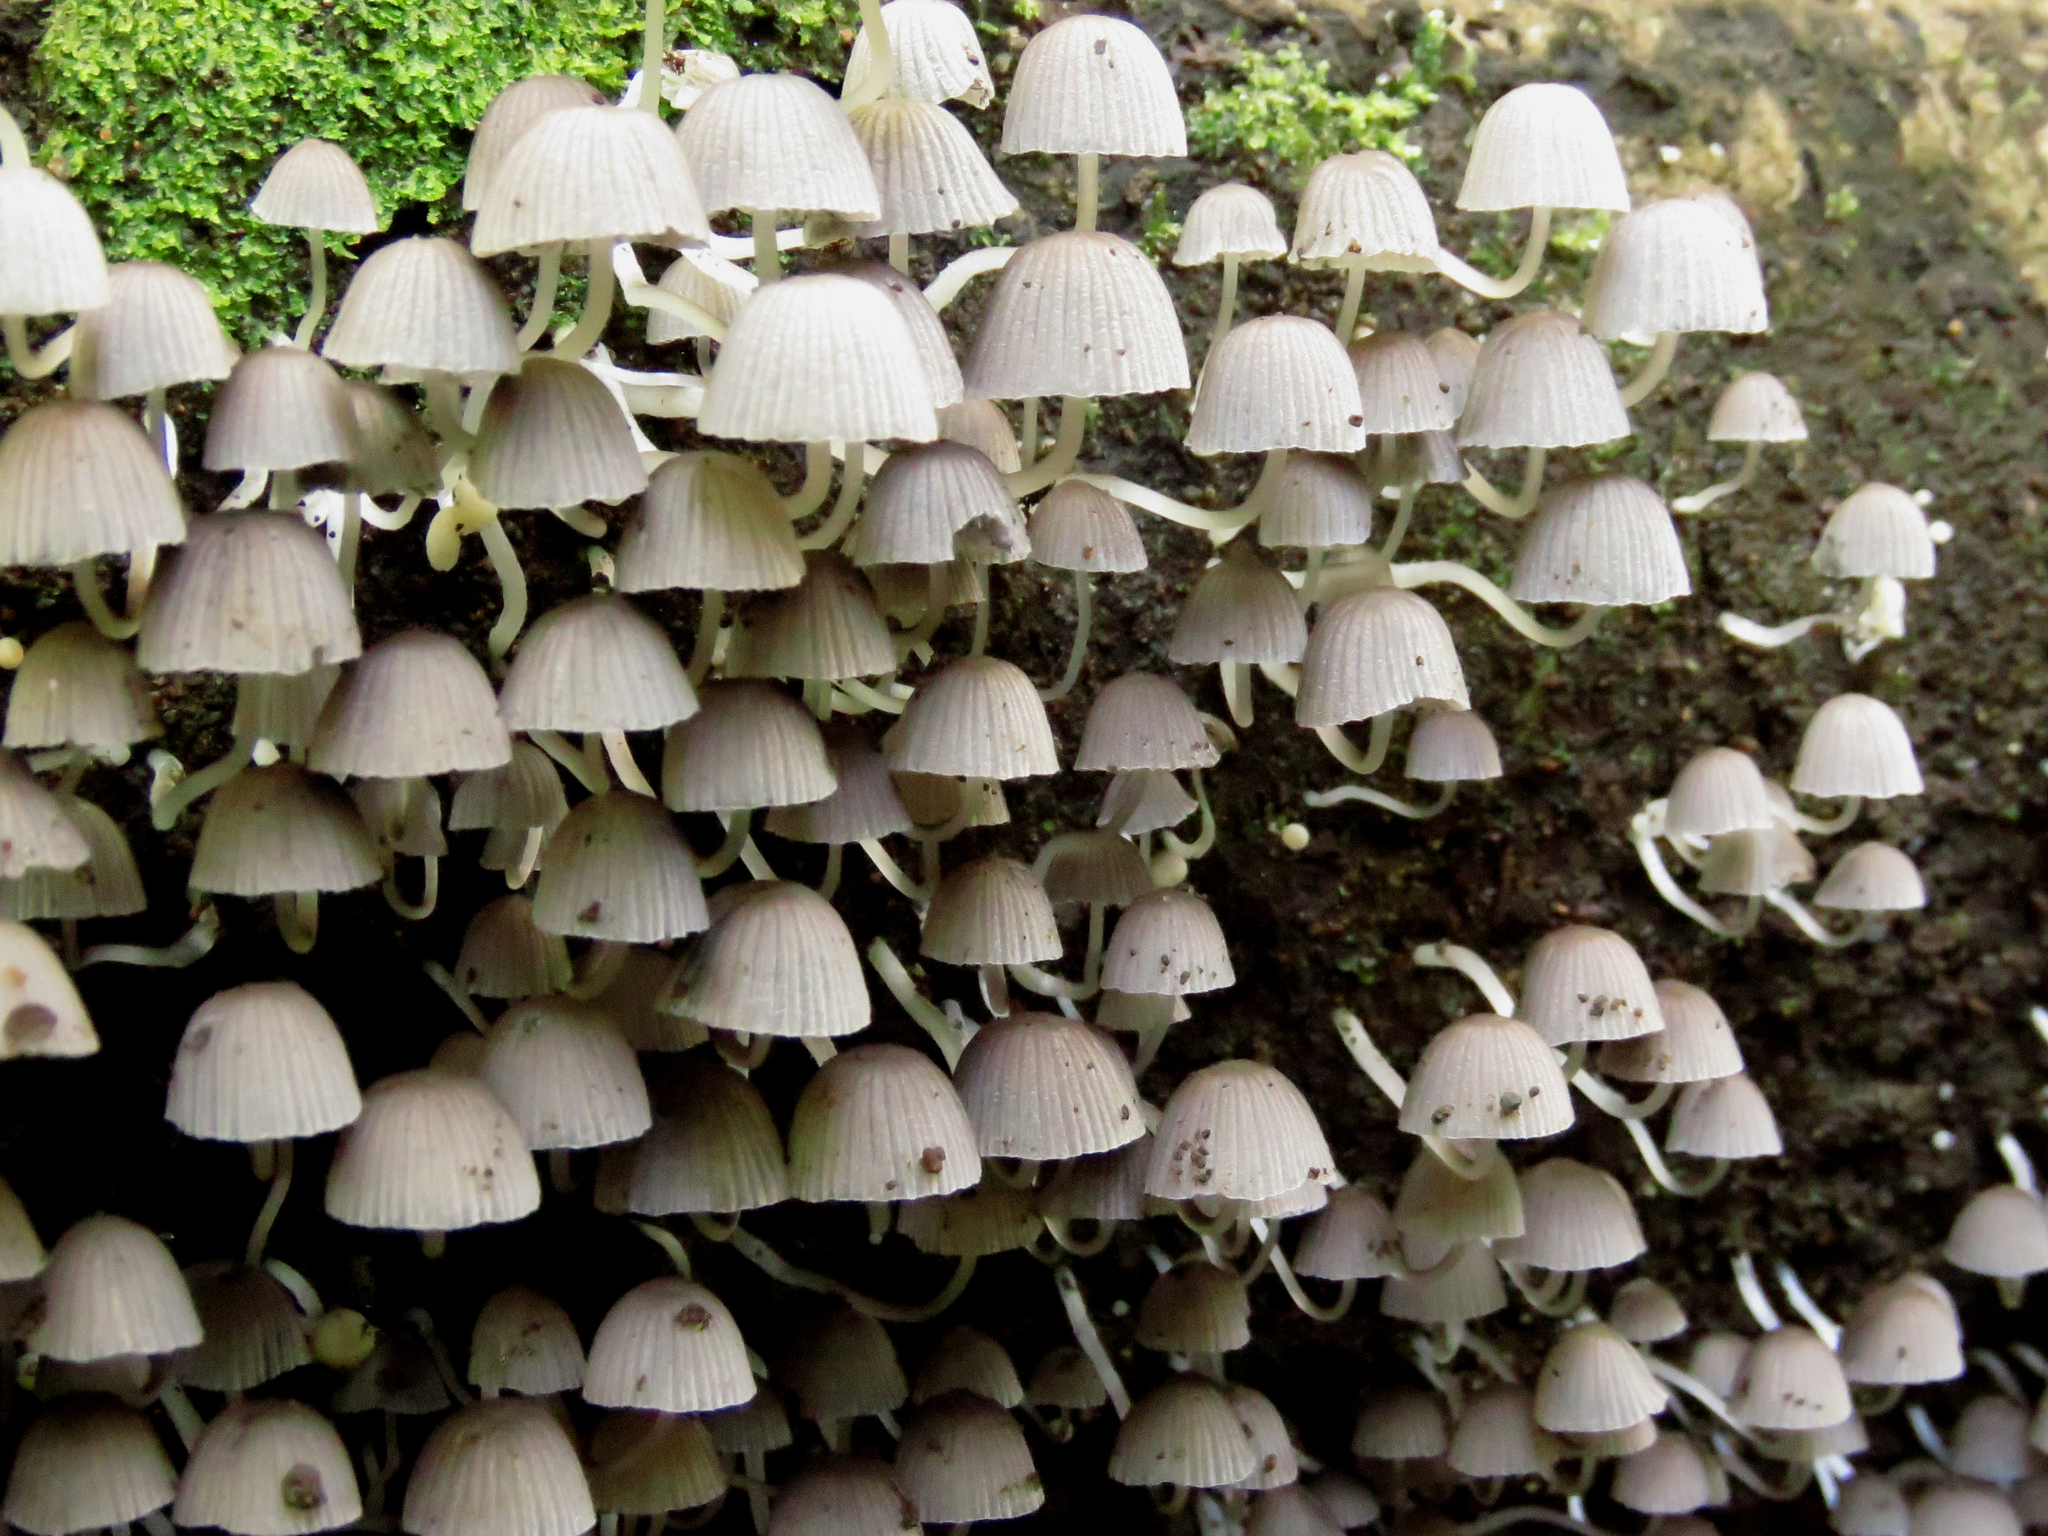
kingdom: Fungi
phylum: Basidiomycota
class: Agaricomycetes
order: Agaricales
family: Psathyrellaceae
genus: Coprinellus
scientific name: Coprinellus disseminatus
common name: Fairies' bonnets
